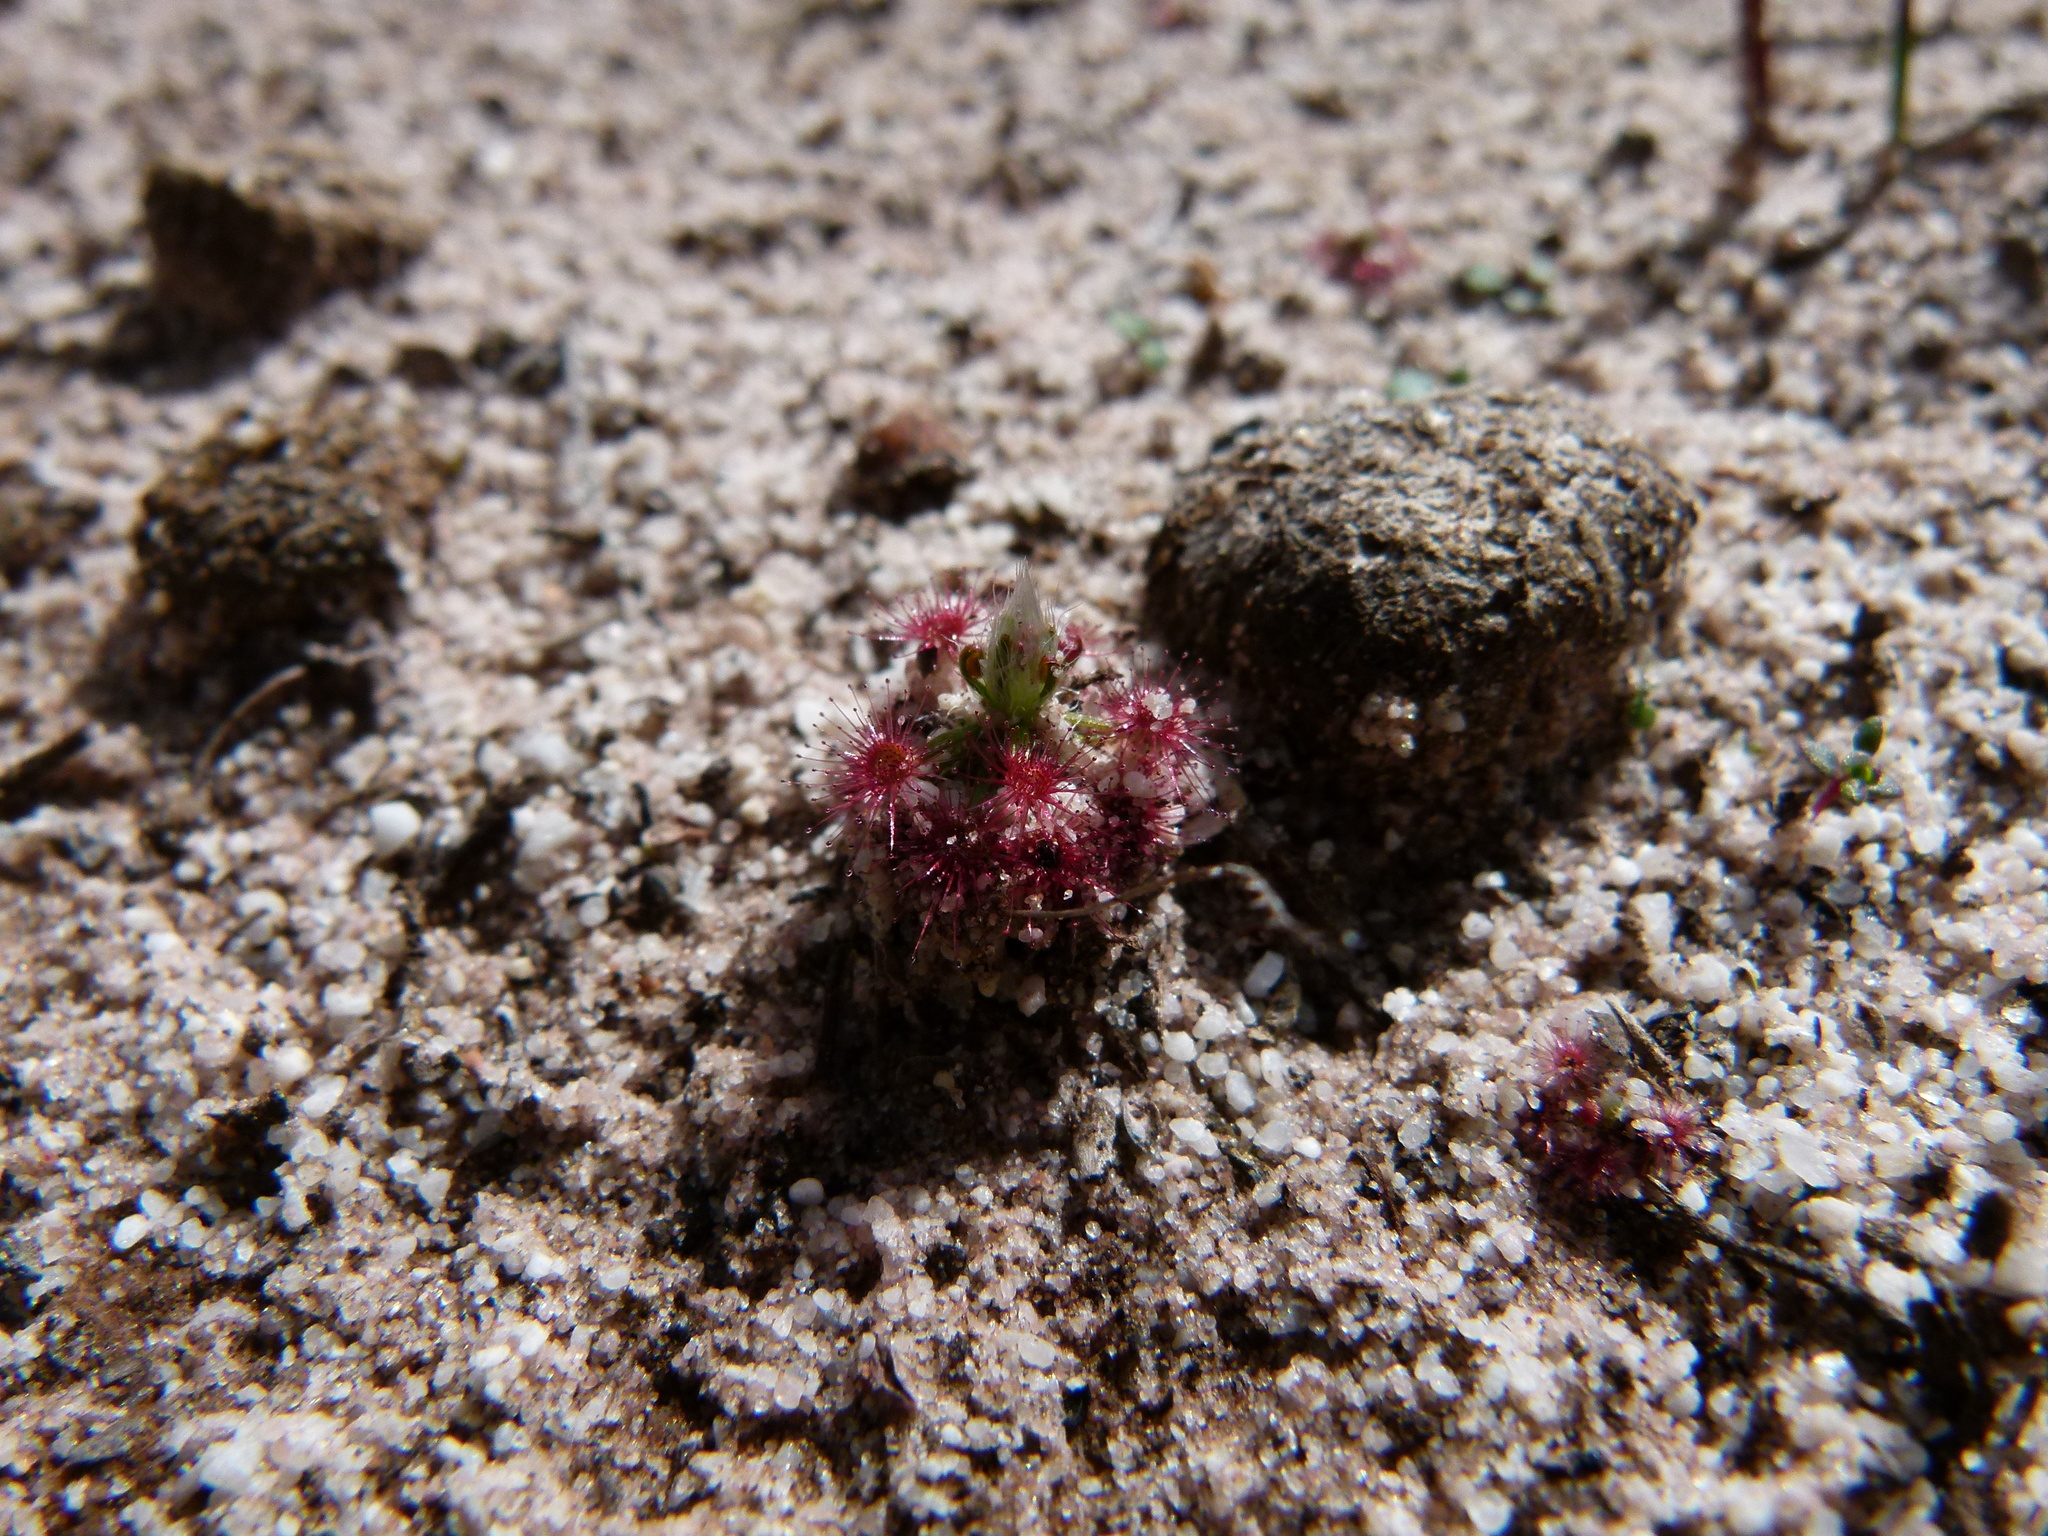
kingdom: Plantae
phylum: Tracheophyta
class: Magnoliopsida
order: Caryophyllales
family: Droseraceae
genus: Drosera
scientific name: Drosera paleacea
